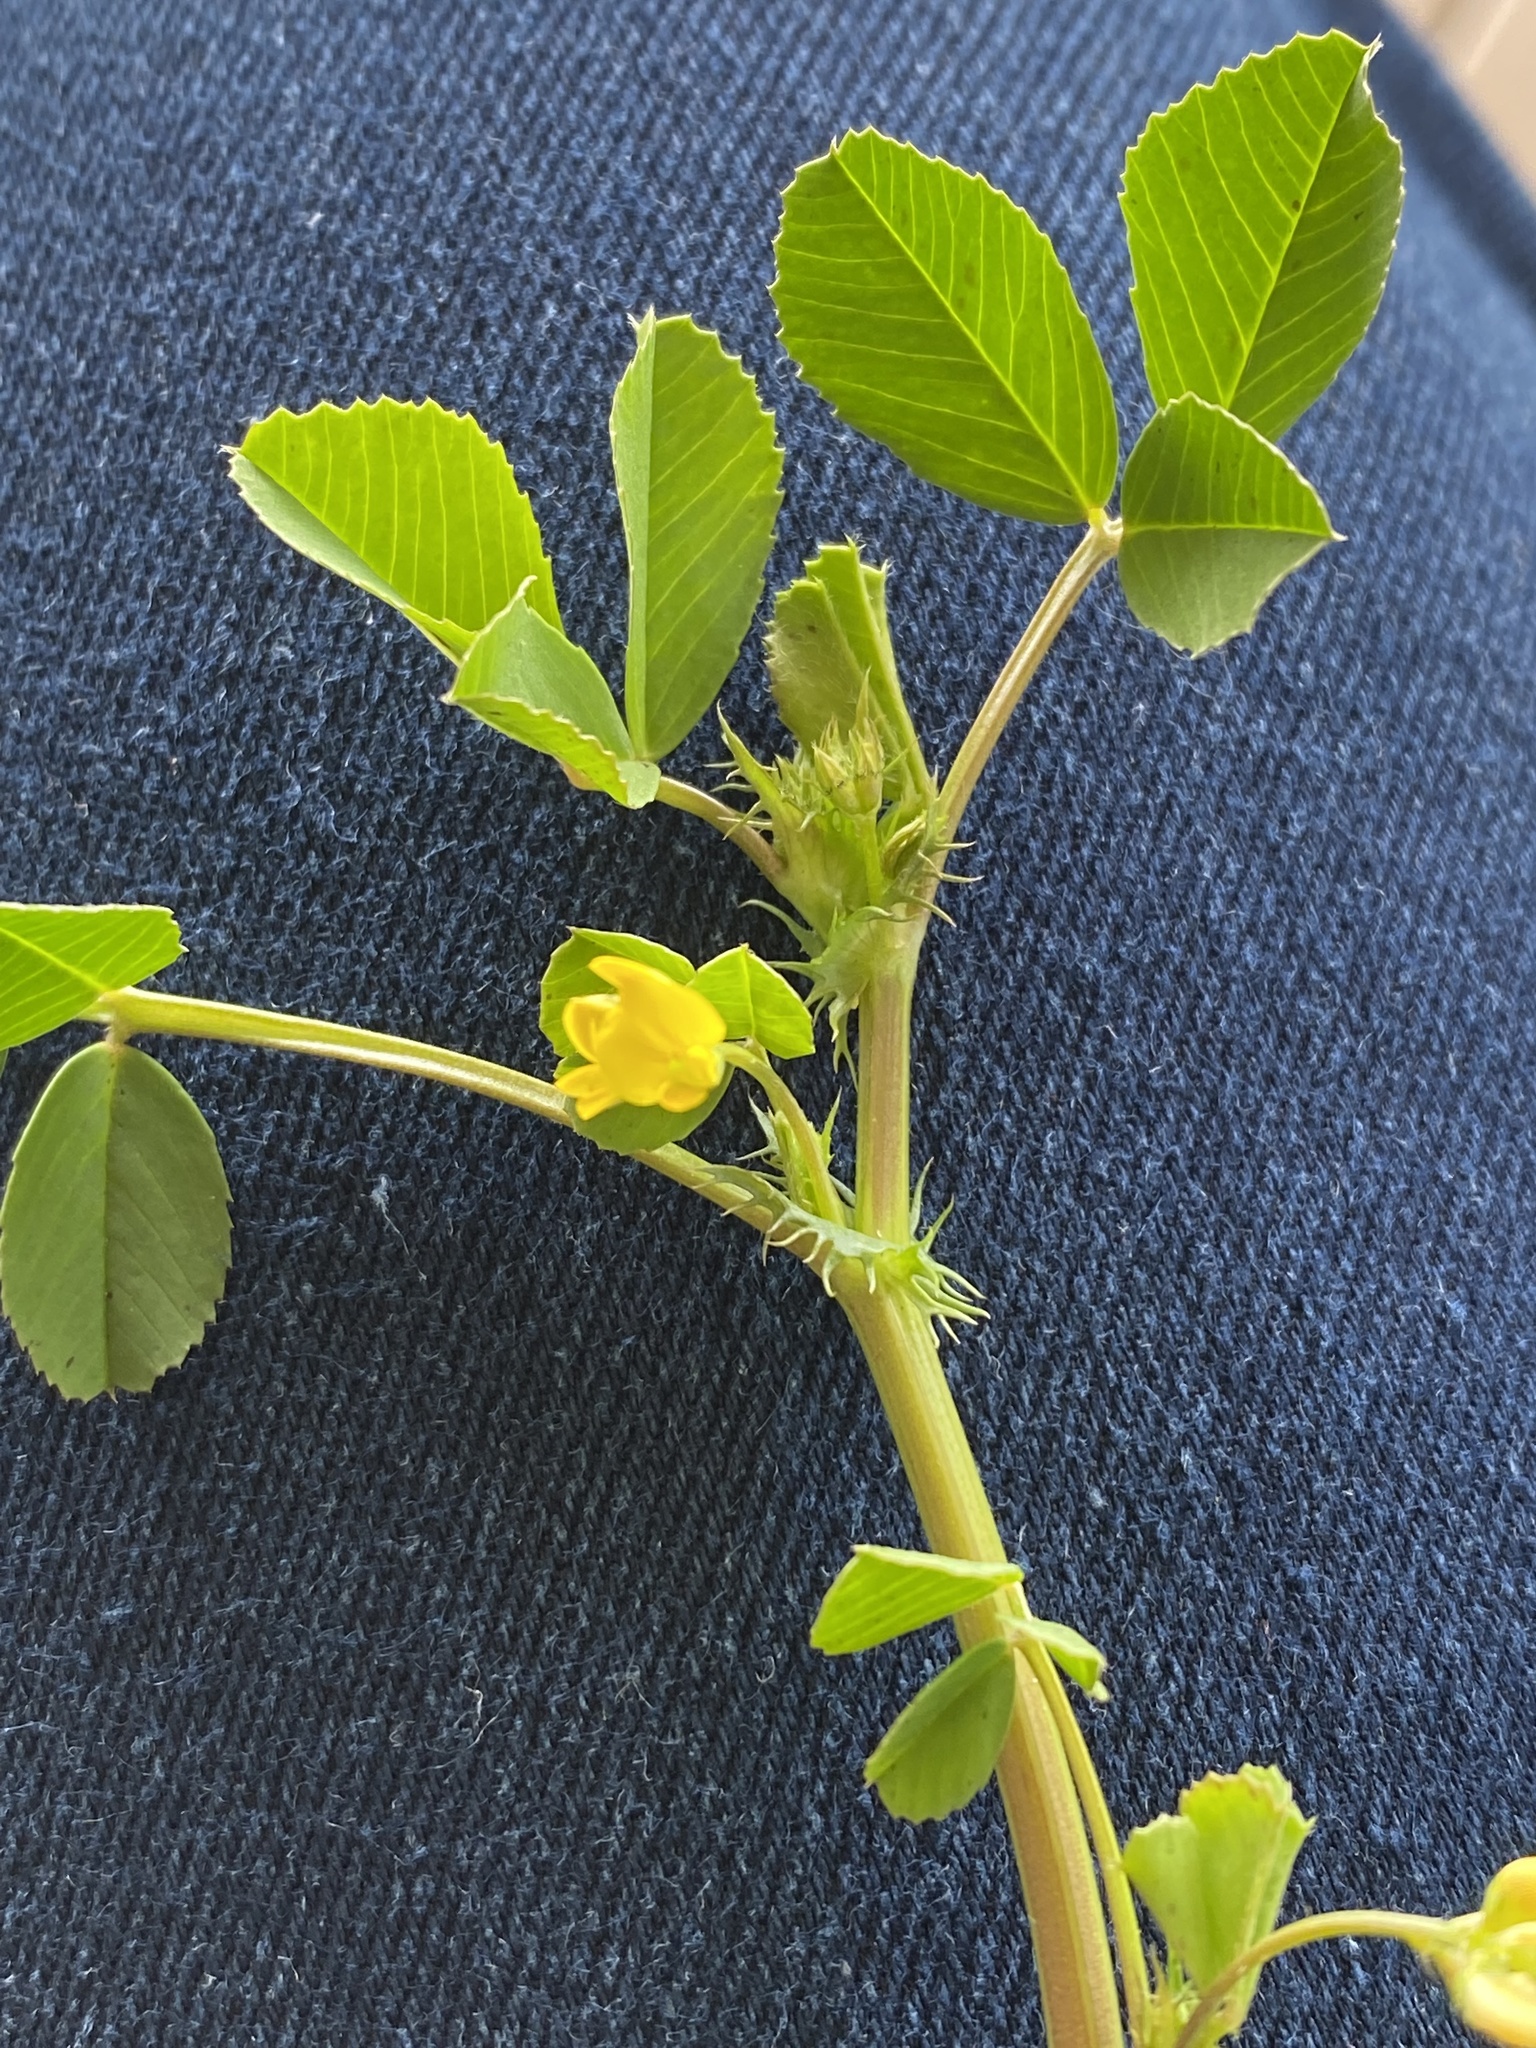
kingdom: Plantae
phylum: Tracheophyta
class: Magnoliopsida
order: Fabales
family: Fabaceae
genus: Medicago
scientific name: Medicago polymorpha
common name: Burclover
